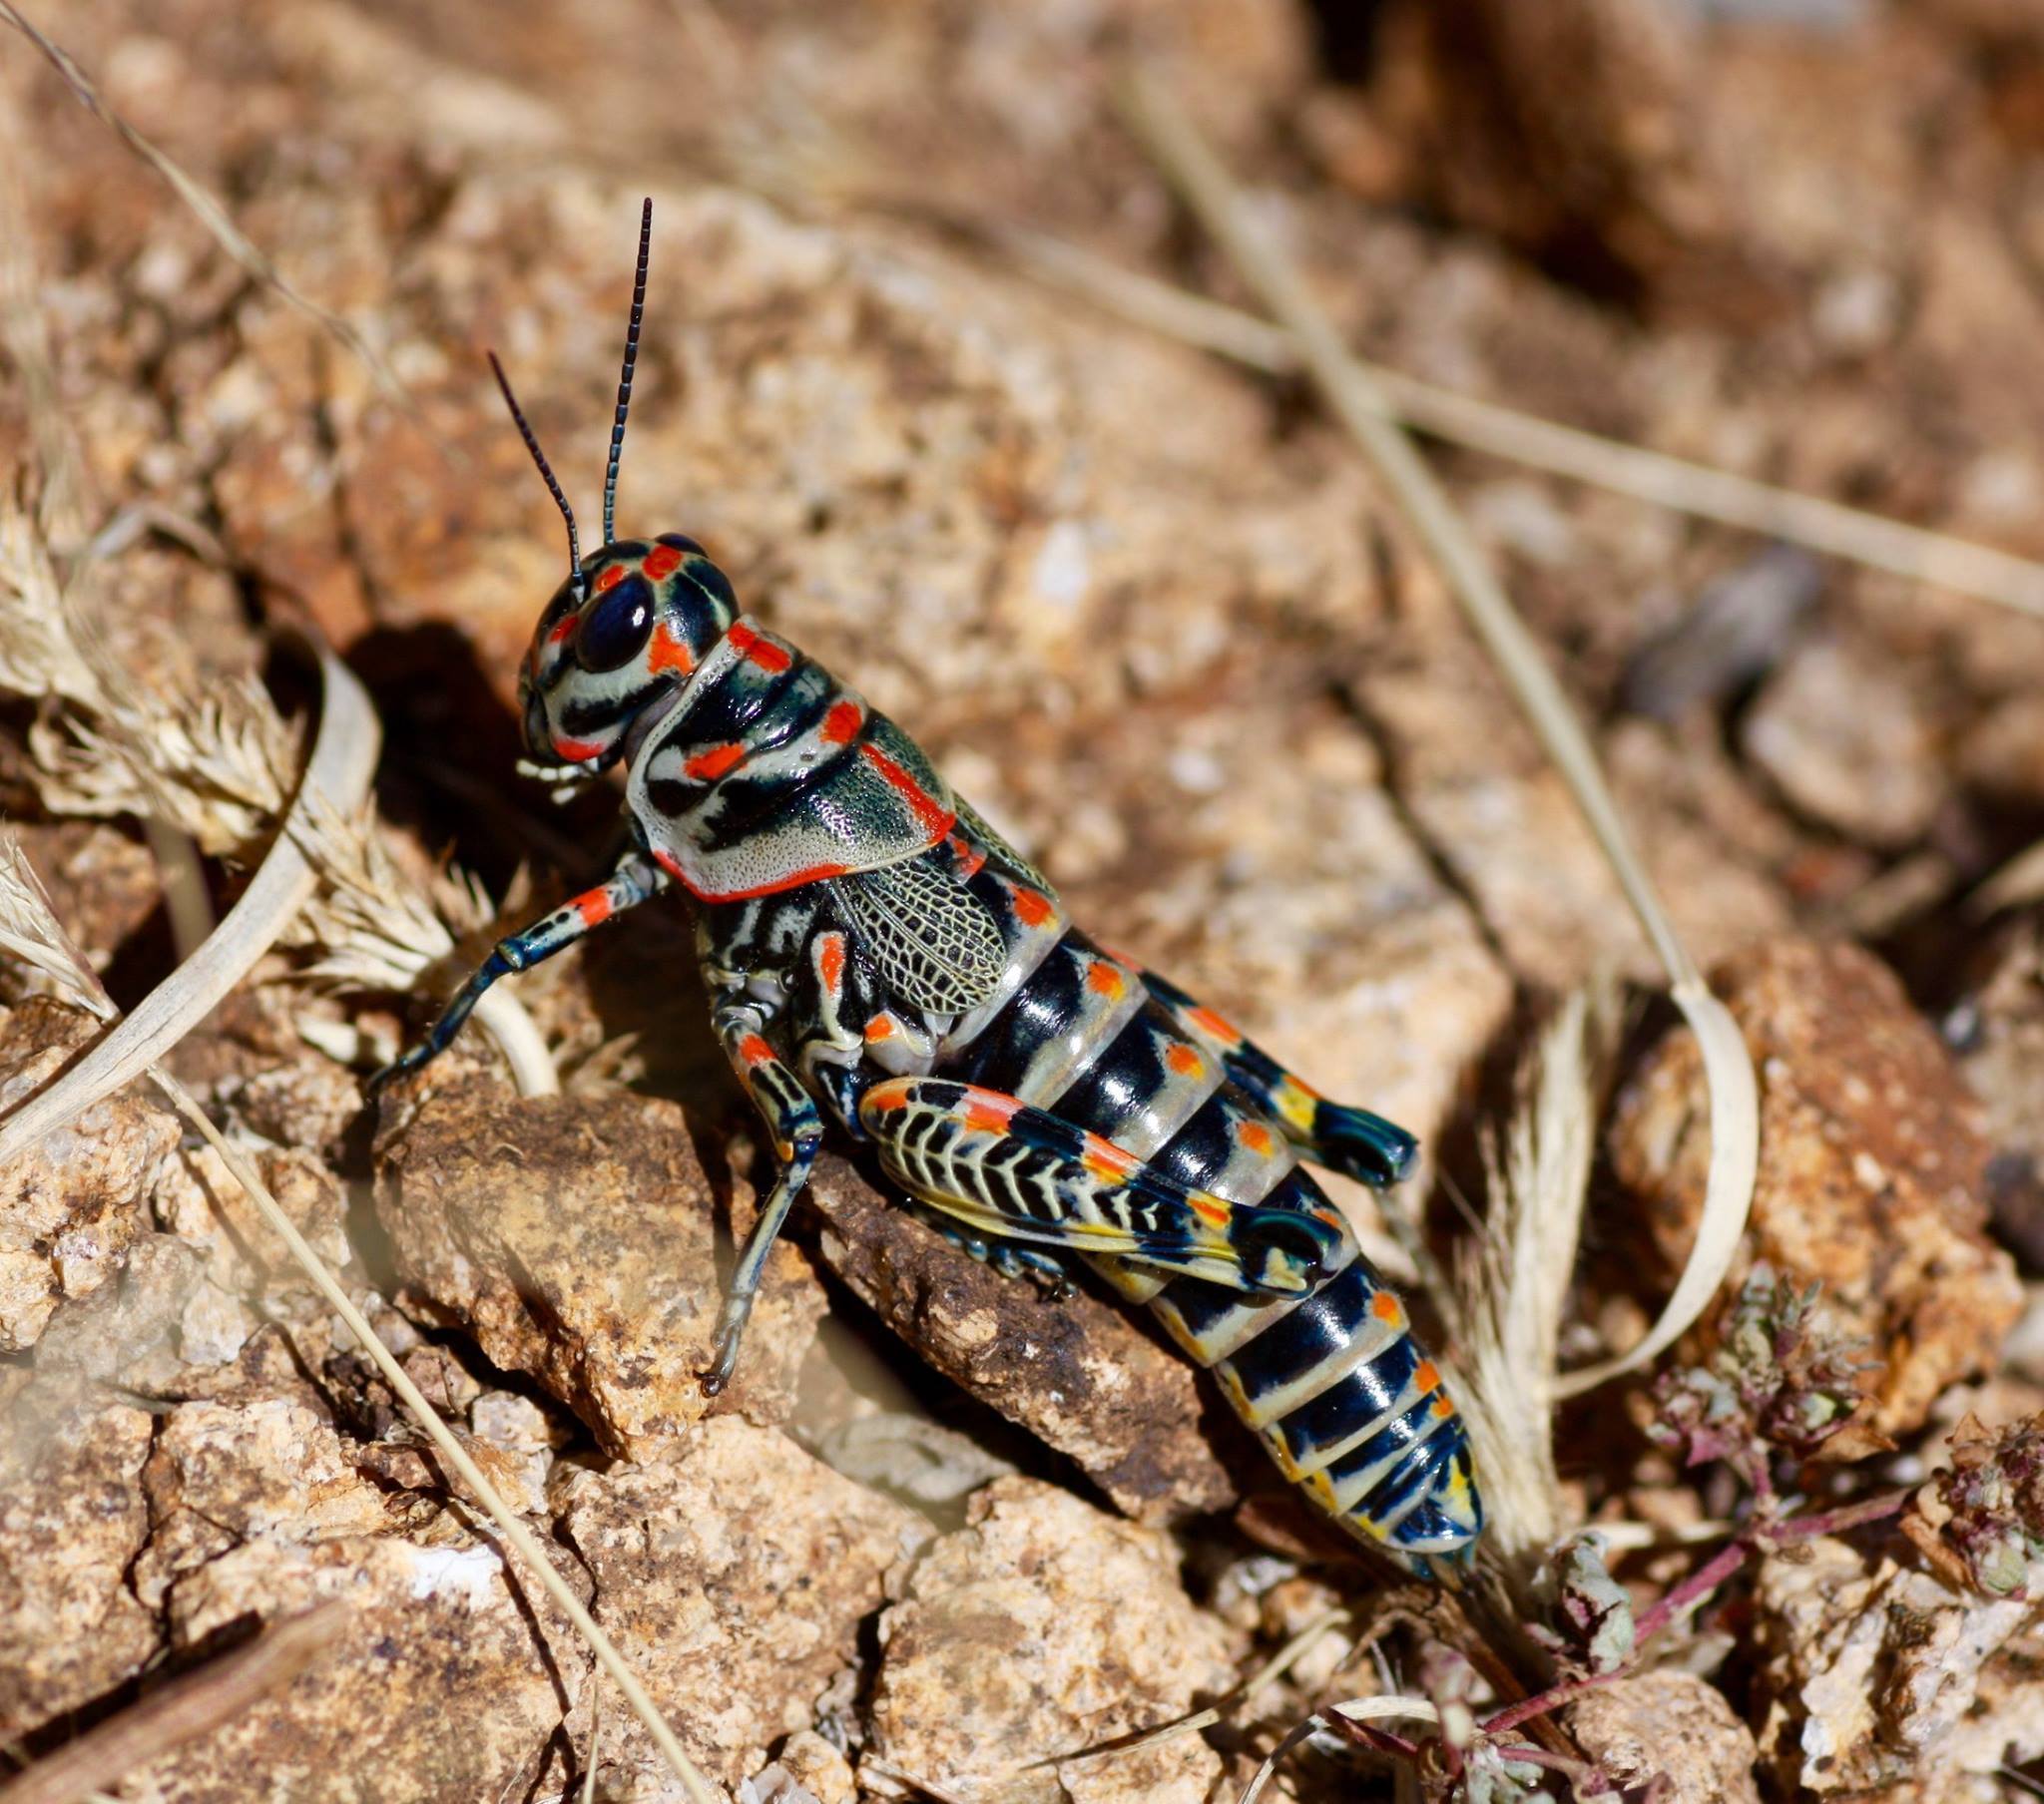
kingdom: Animalia
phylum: Arthropoda
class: Insecta
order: Orthoptera
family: Acrididae
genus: Dactylotum
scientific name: Dactylotum bicolor
